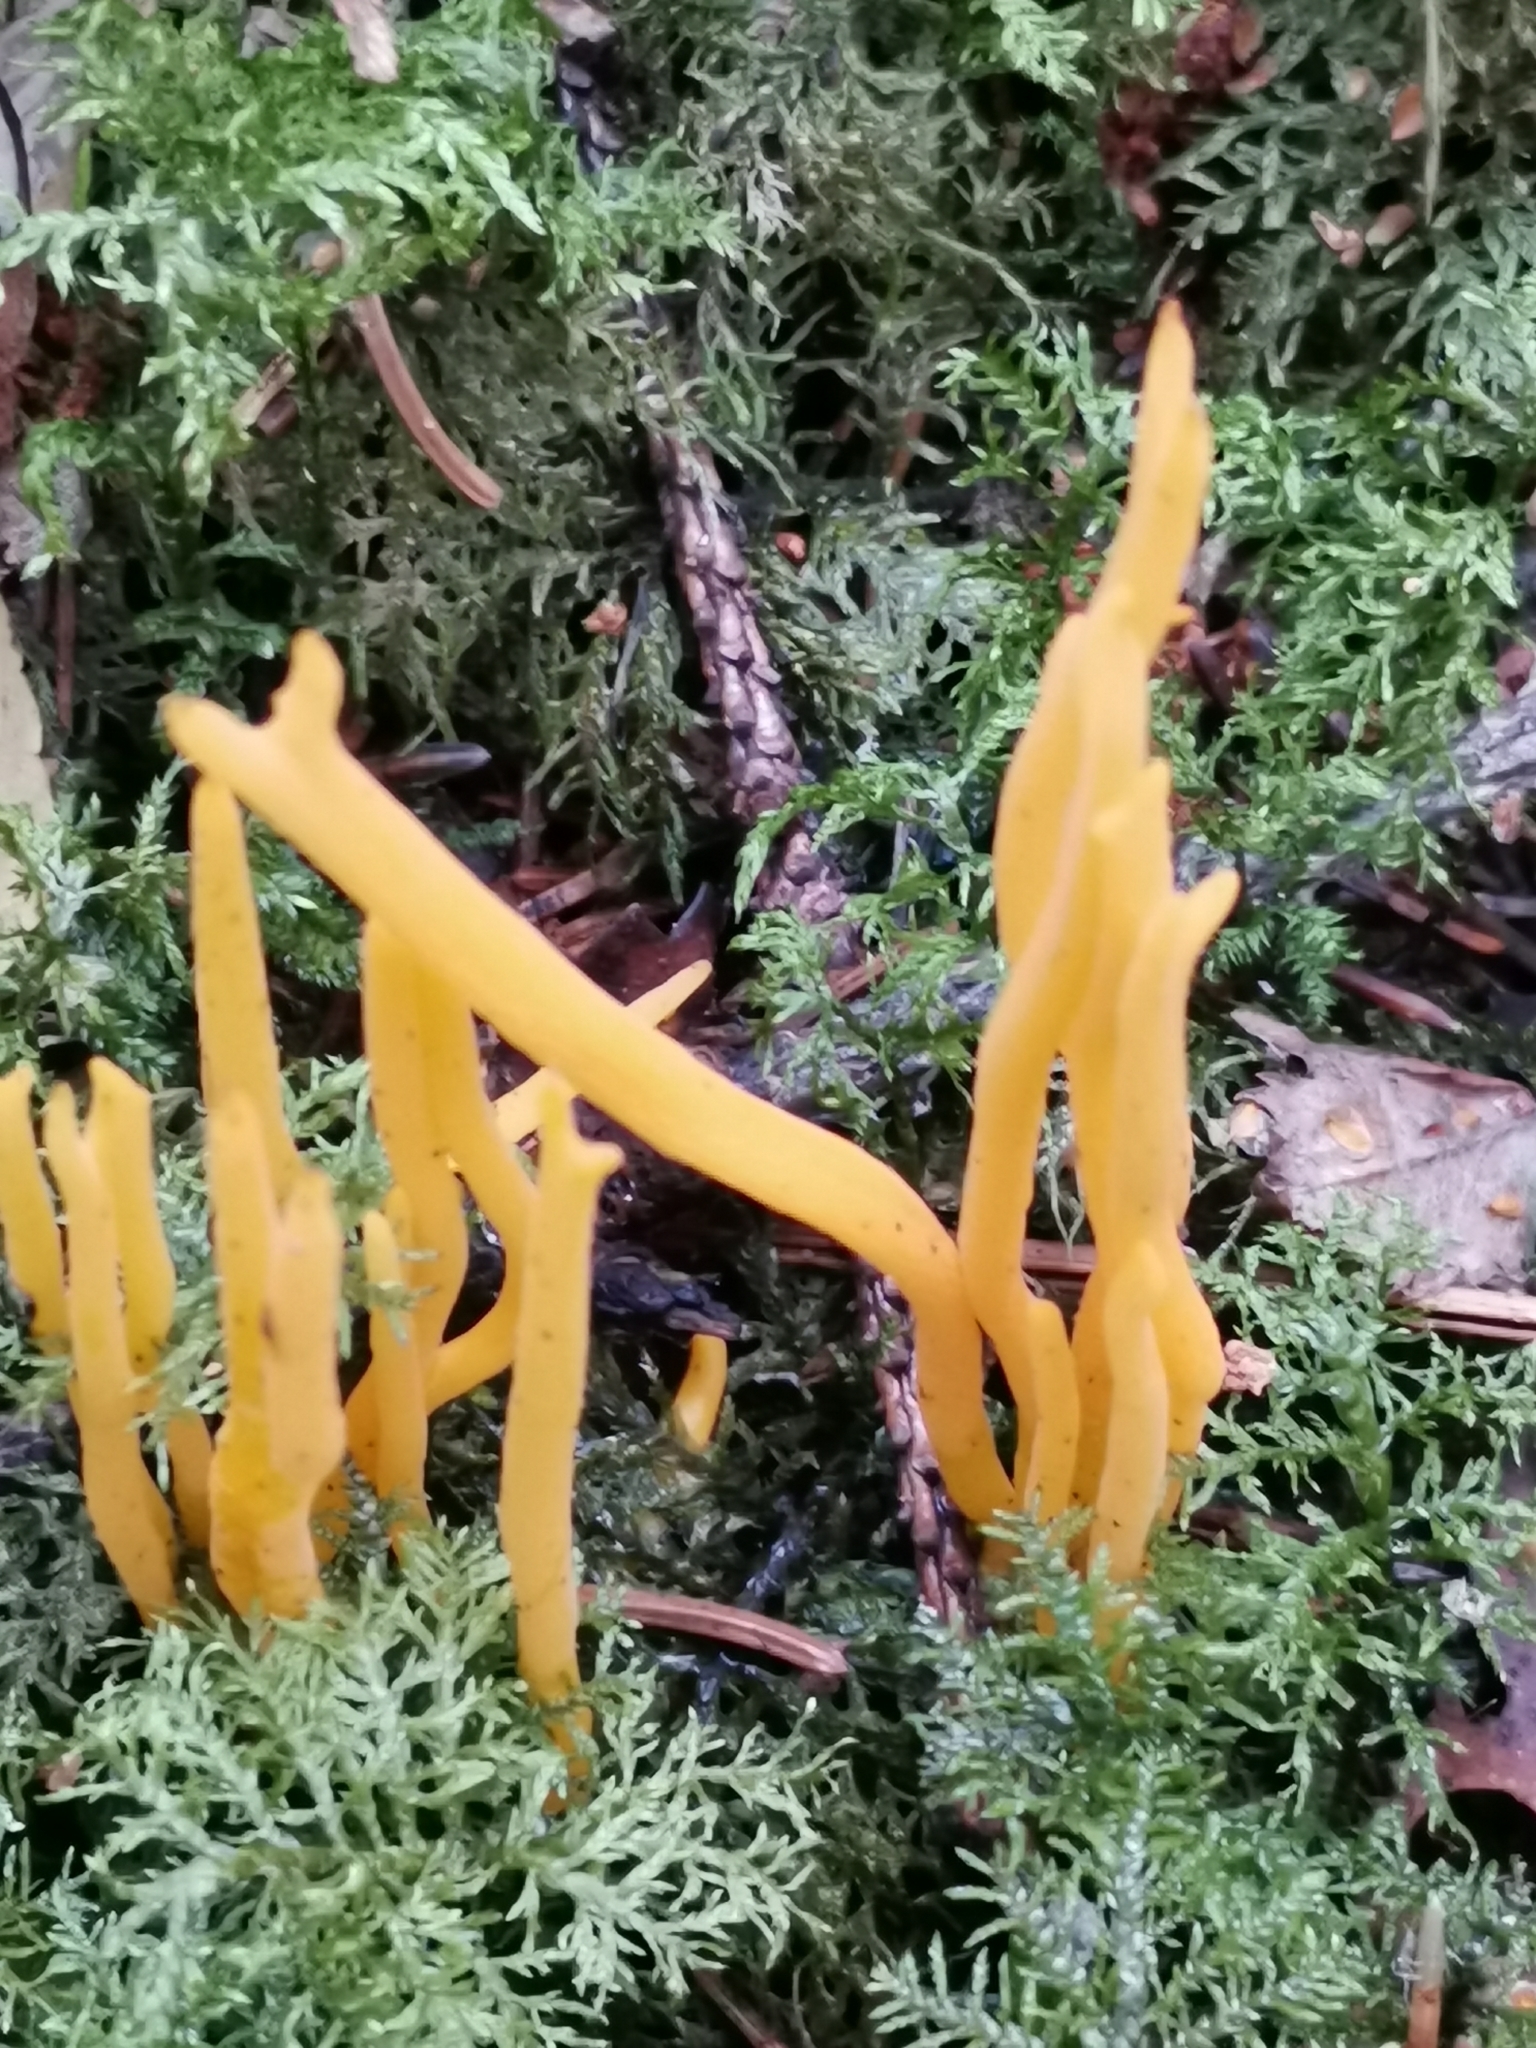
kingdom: Fungi
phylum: Basidiomycota
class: Dacrymycetes
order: Dacrymycetales
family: Dacrymycetaceae
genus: Calocera
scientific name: Calocera viscosa
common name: Yellow stagshorn
